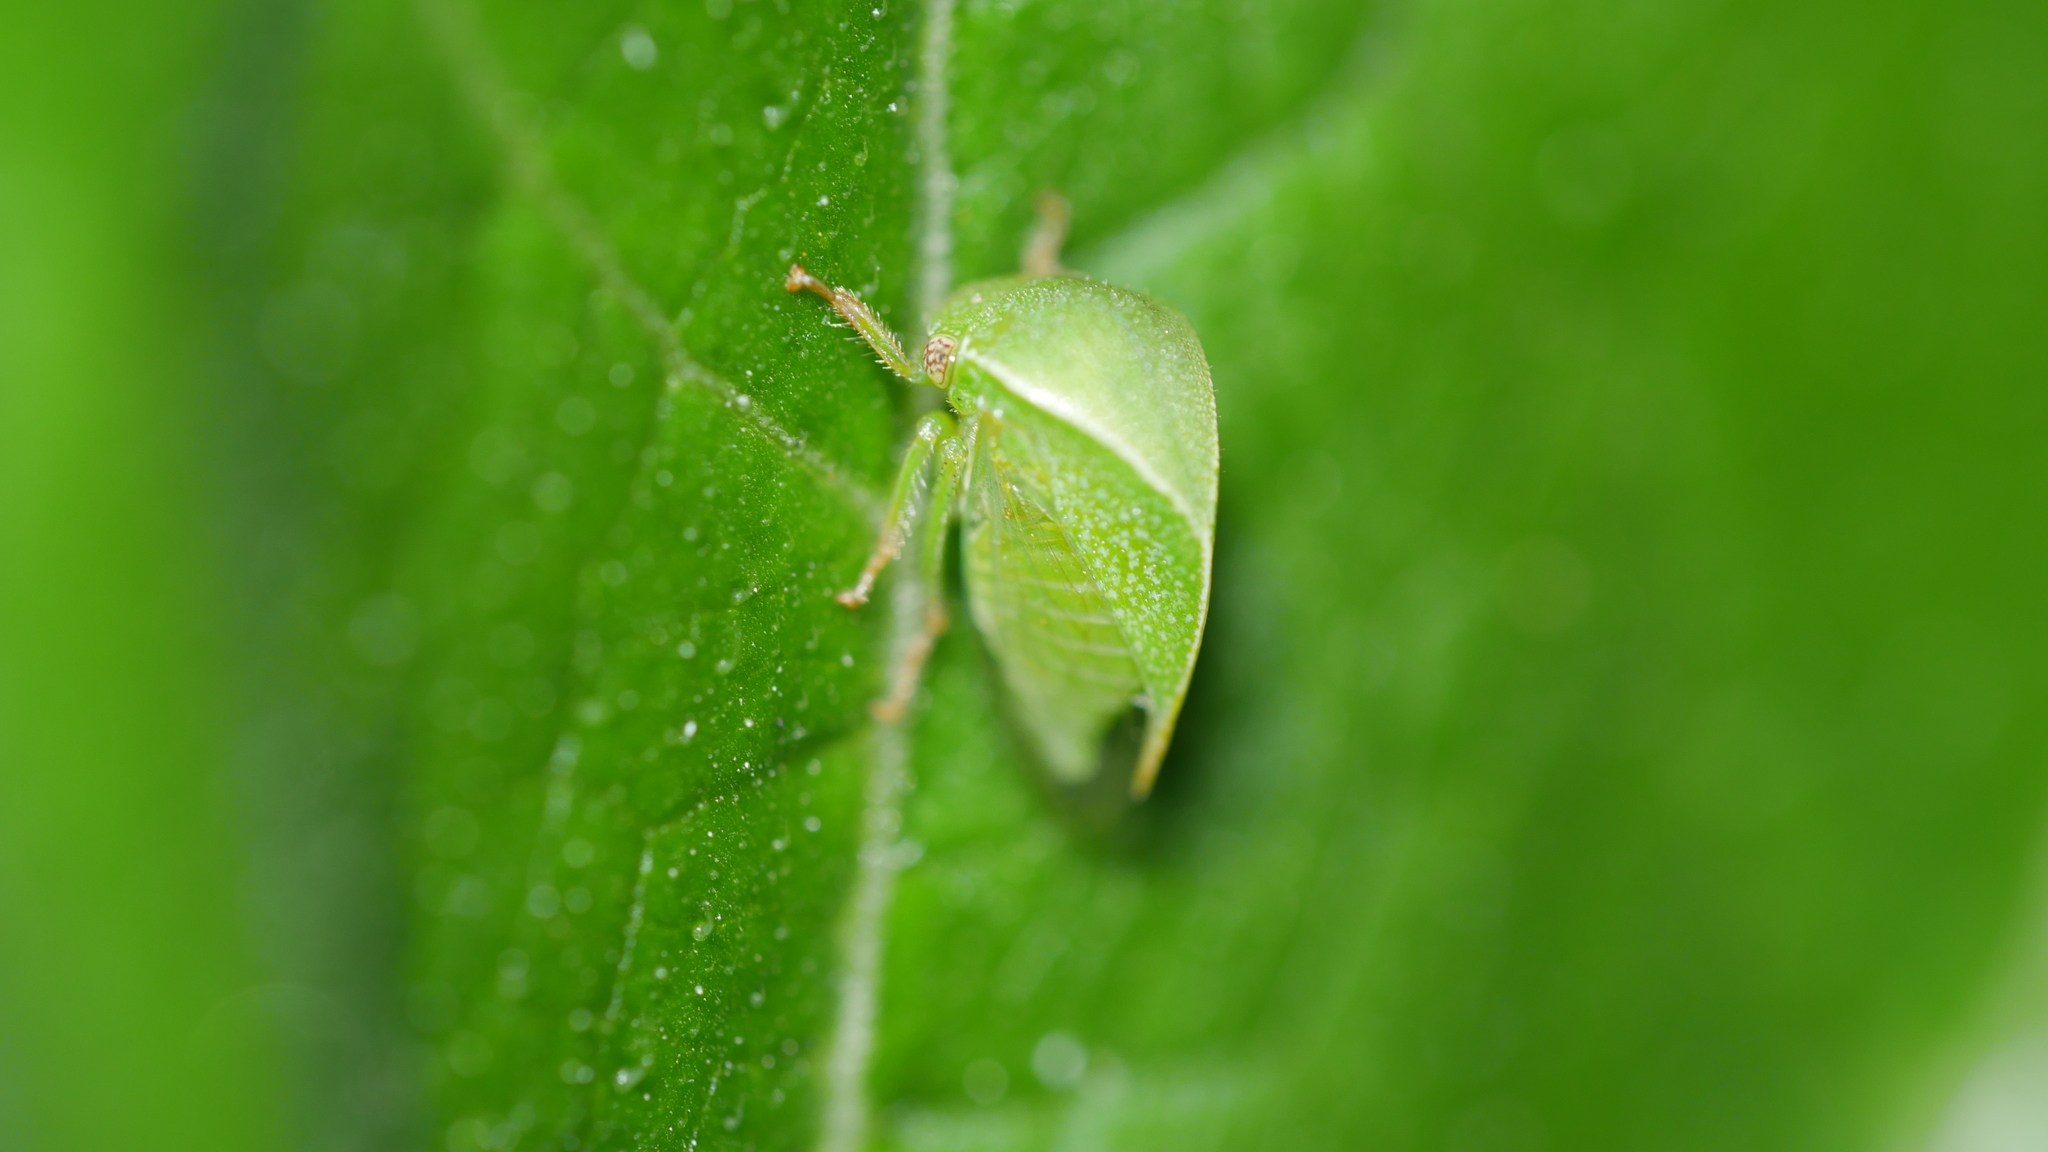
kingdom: Animalia
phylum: Arthropoda
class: Insecta
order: Hemiptera
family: Membracidae
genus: Spissistilus
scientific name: Spissistilus festina
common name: Membracid bug
